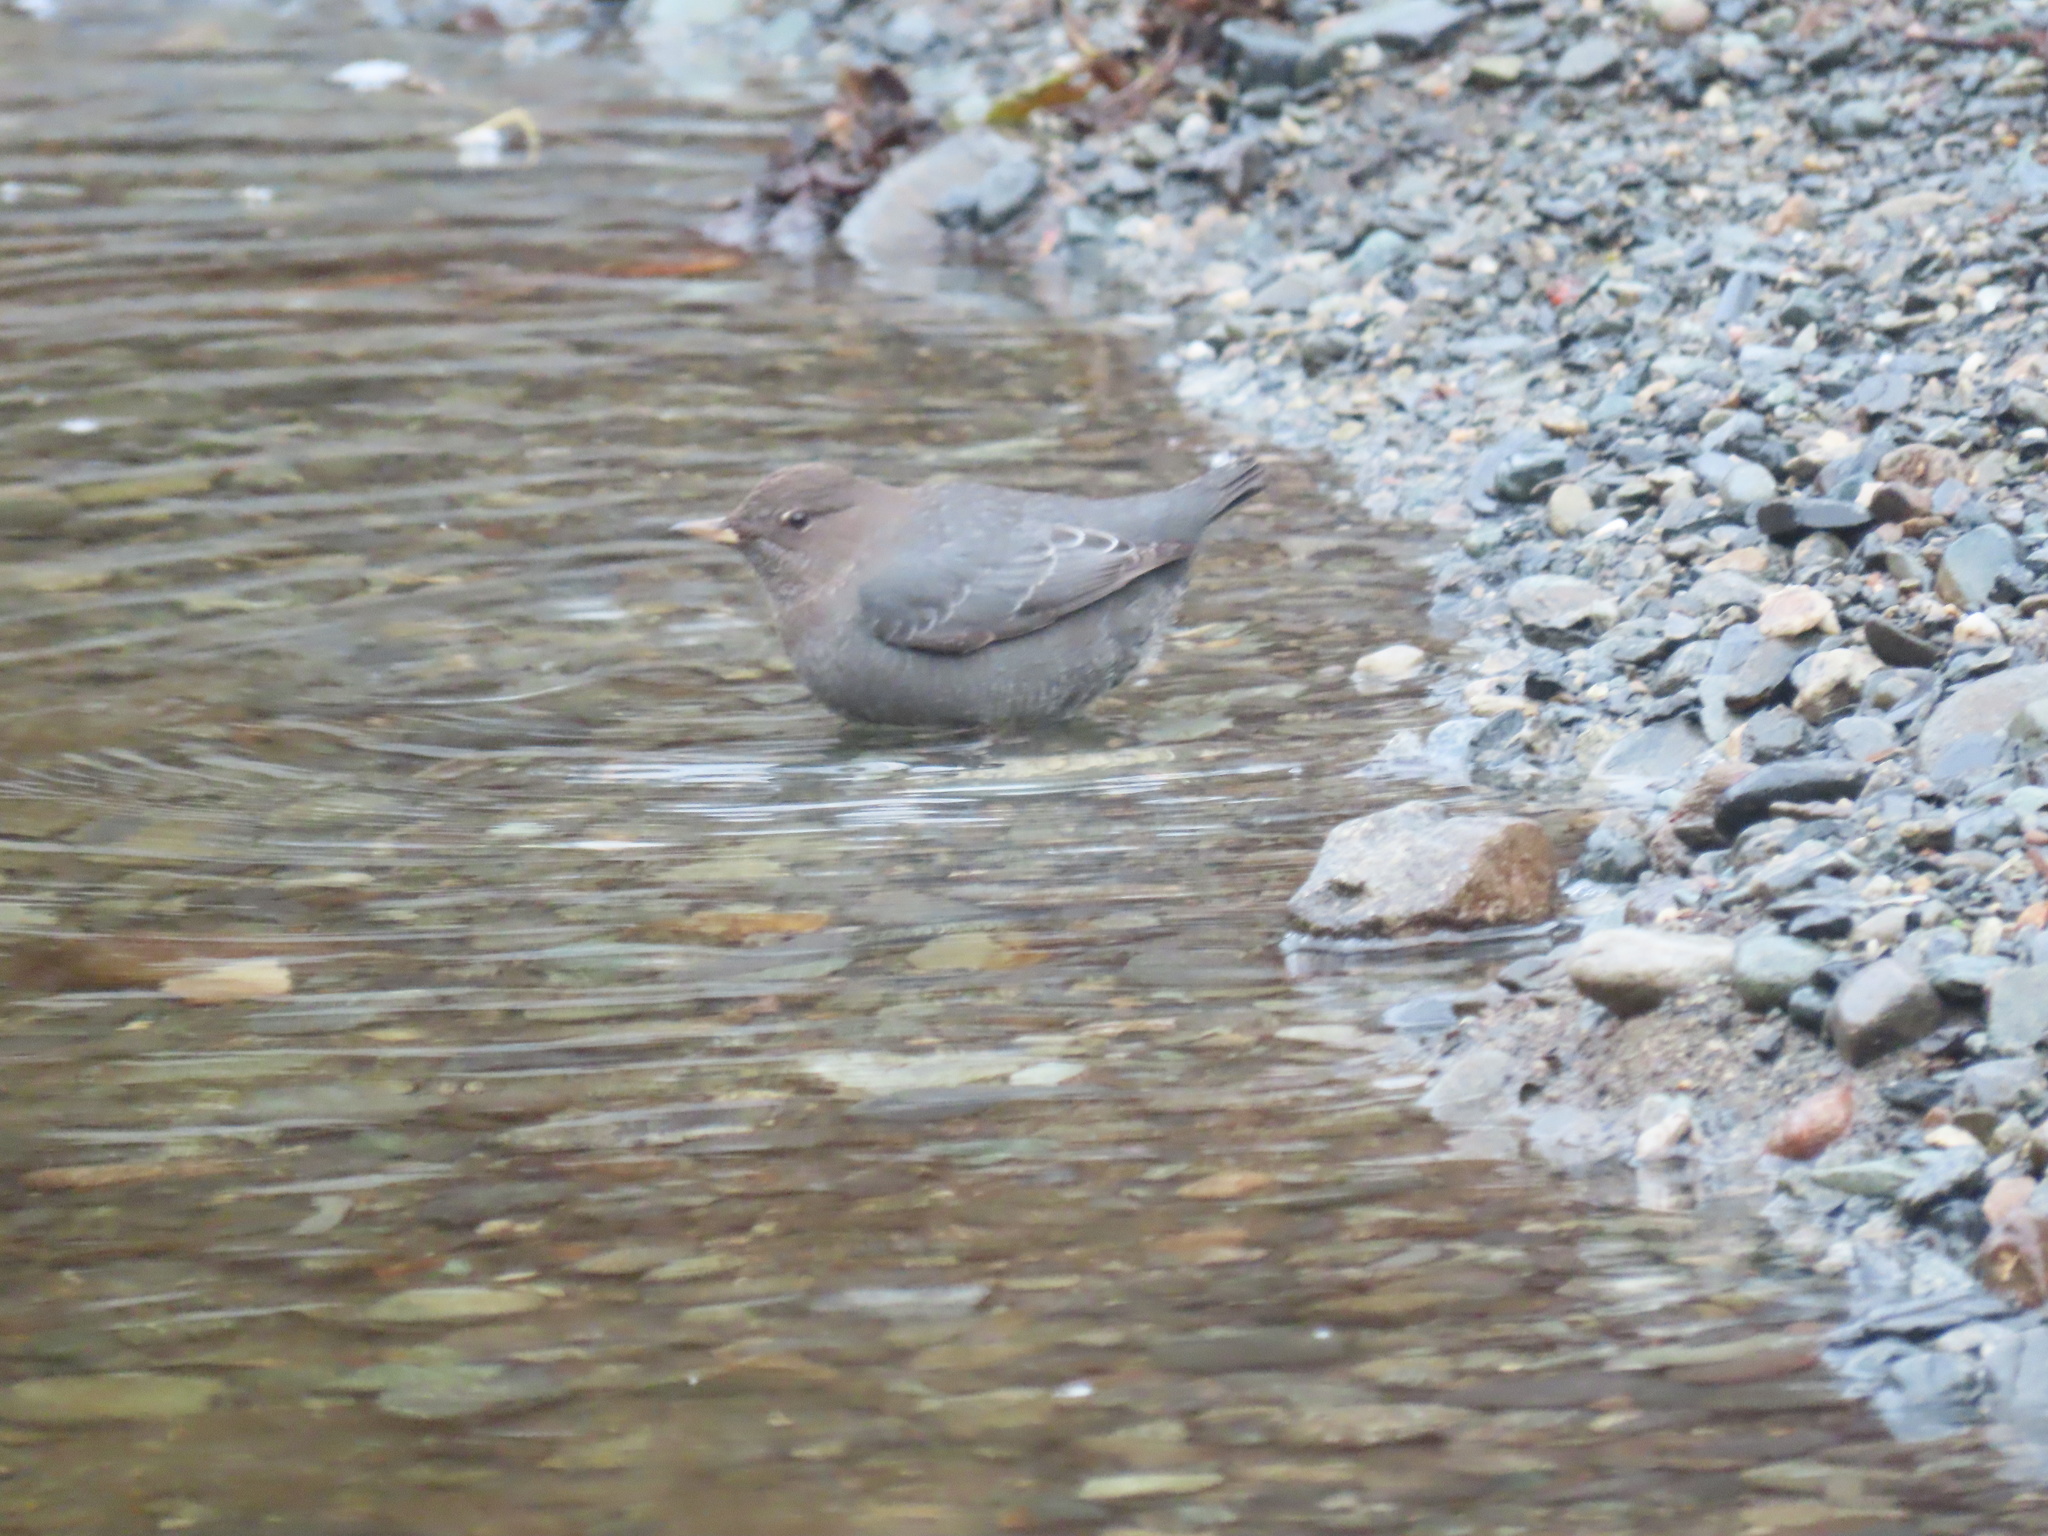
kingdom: Animalia
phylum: Chordata
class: Aves
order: Passeriformes
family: Cinclidae
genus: Cinclus
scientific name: Cinclus mexicanus
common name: American dipper
